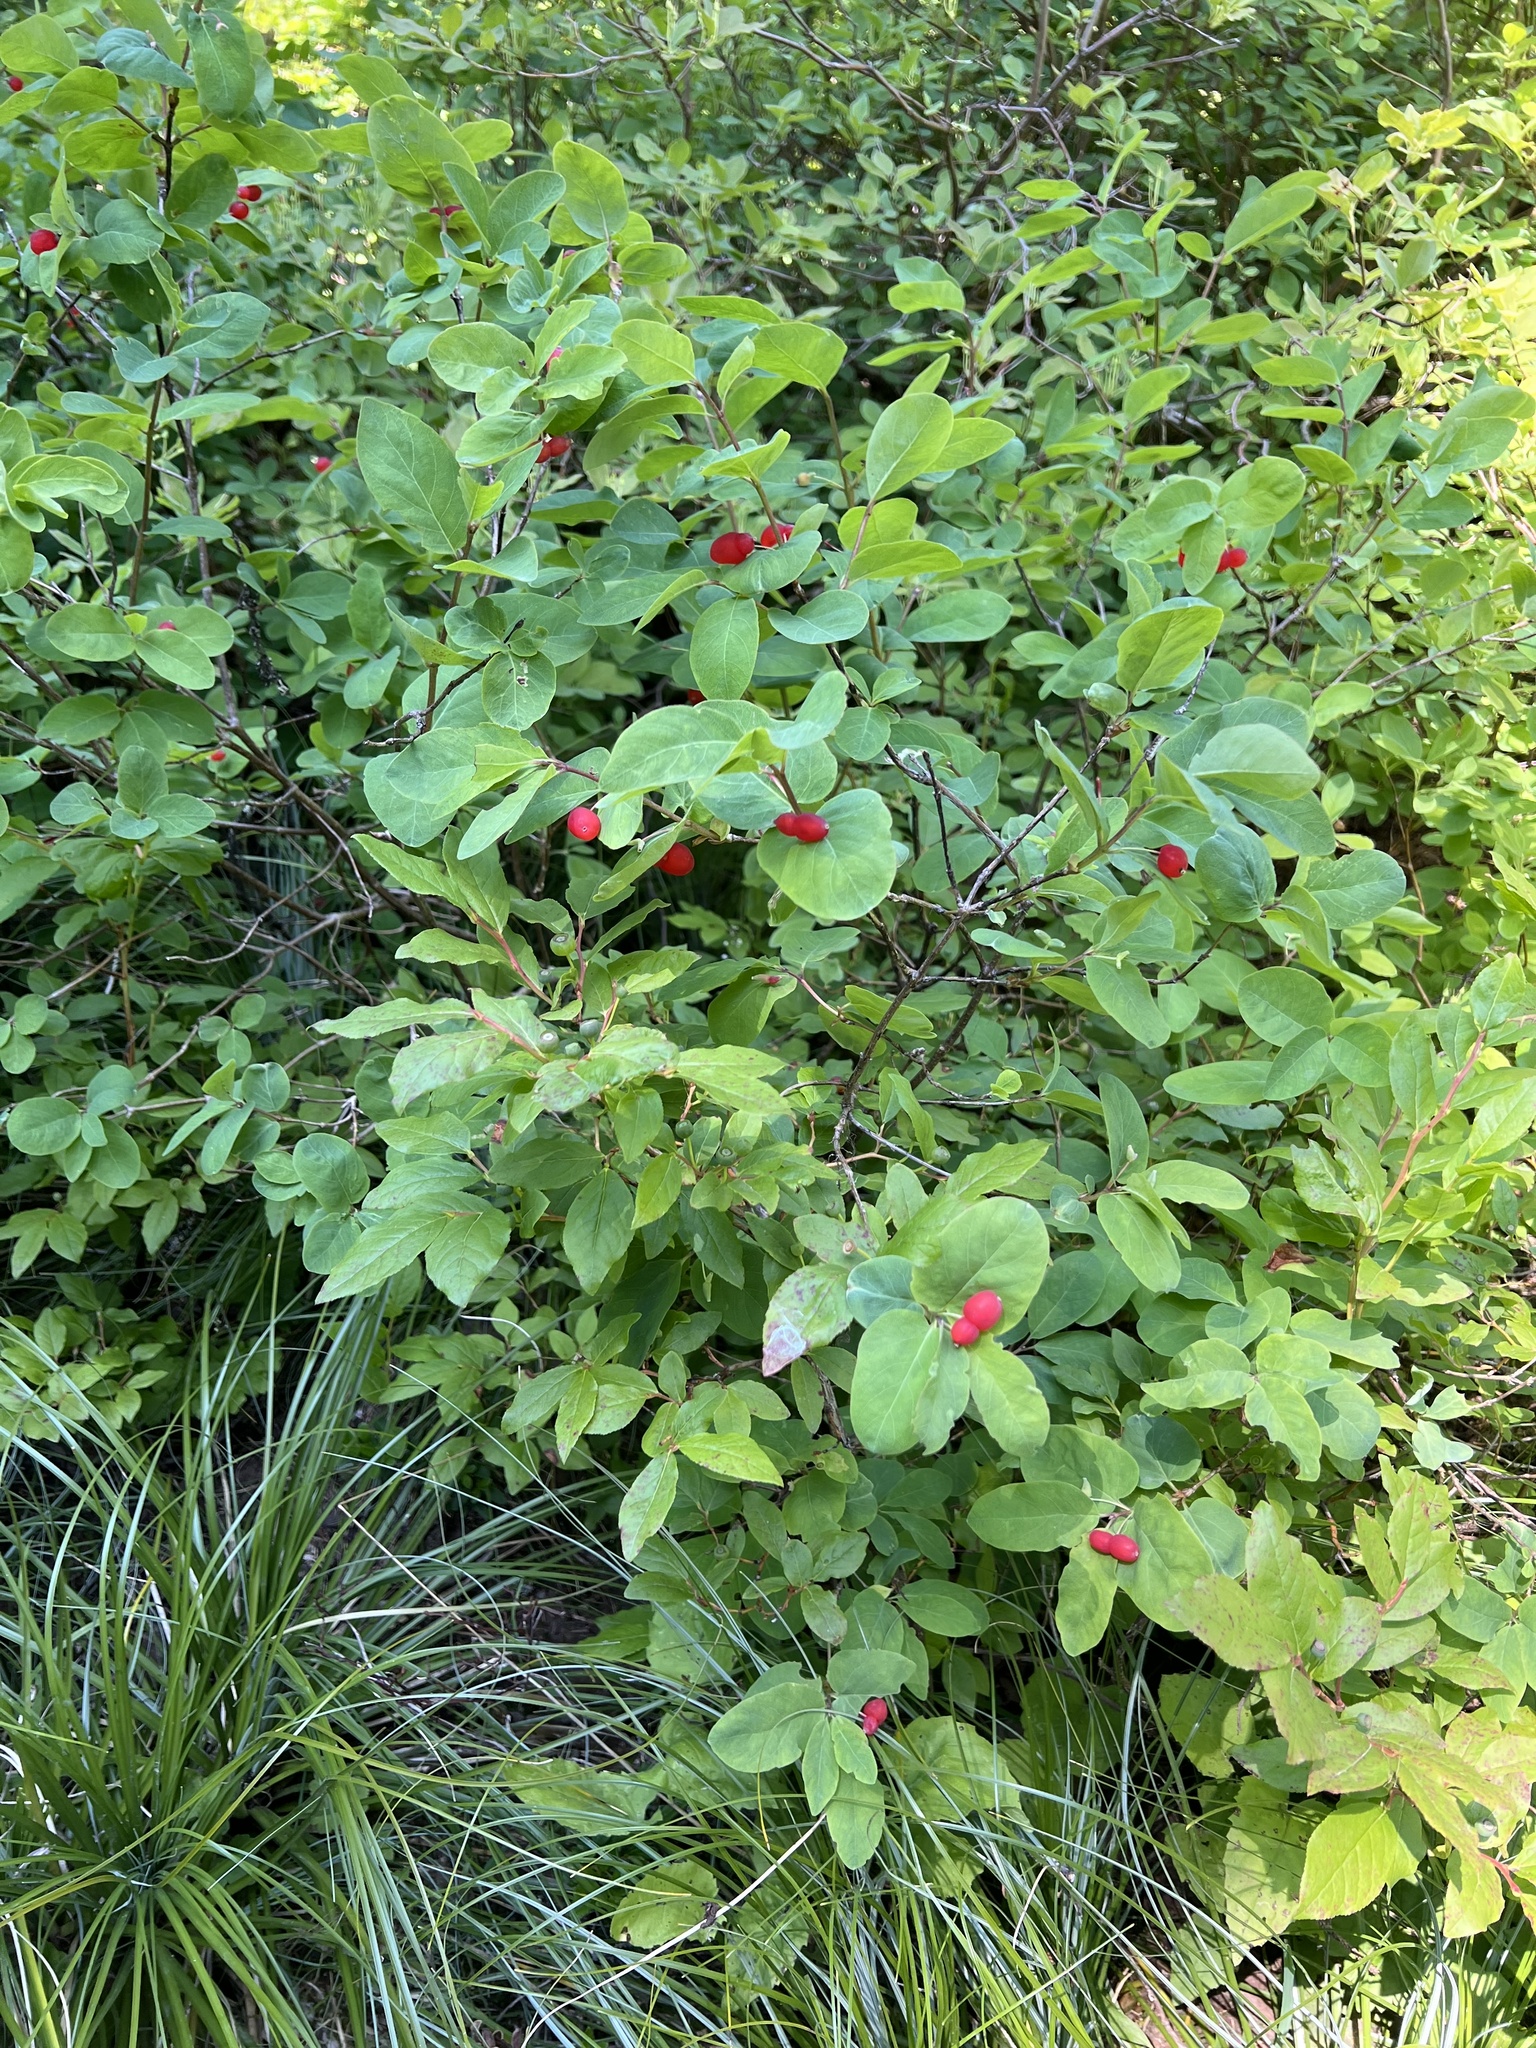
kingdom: Plantae
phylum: Tracheophyta
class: Magnoliopsida
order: Dipsacales
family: Caprifoliaceae
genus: Lonicera
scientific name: Lonicera utahensis
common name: Utah honeysuckle
